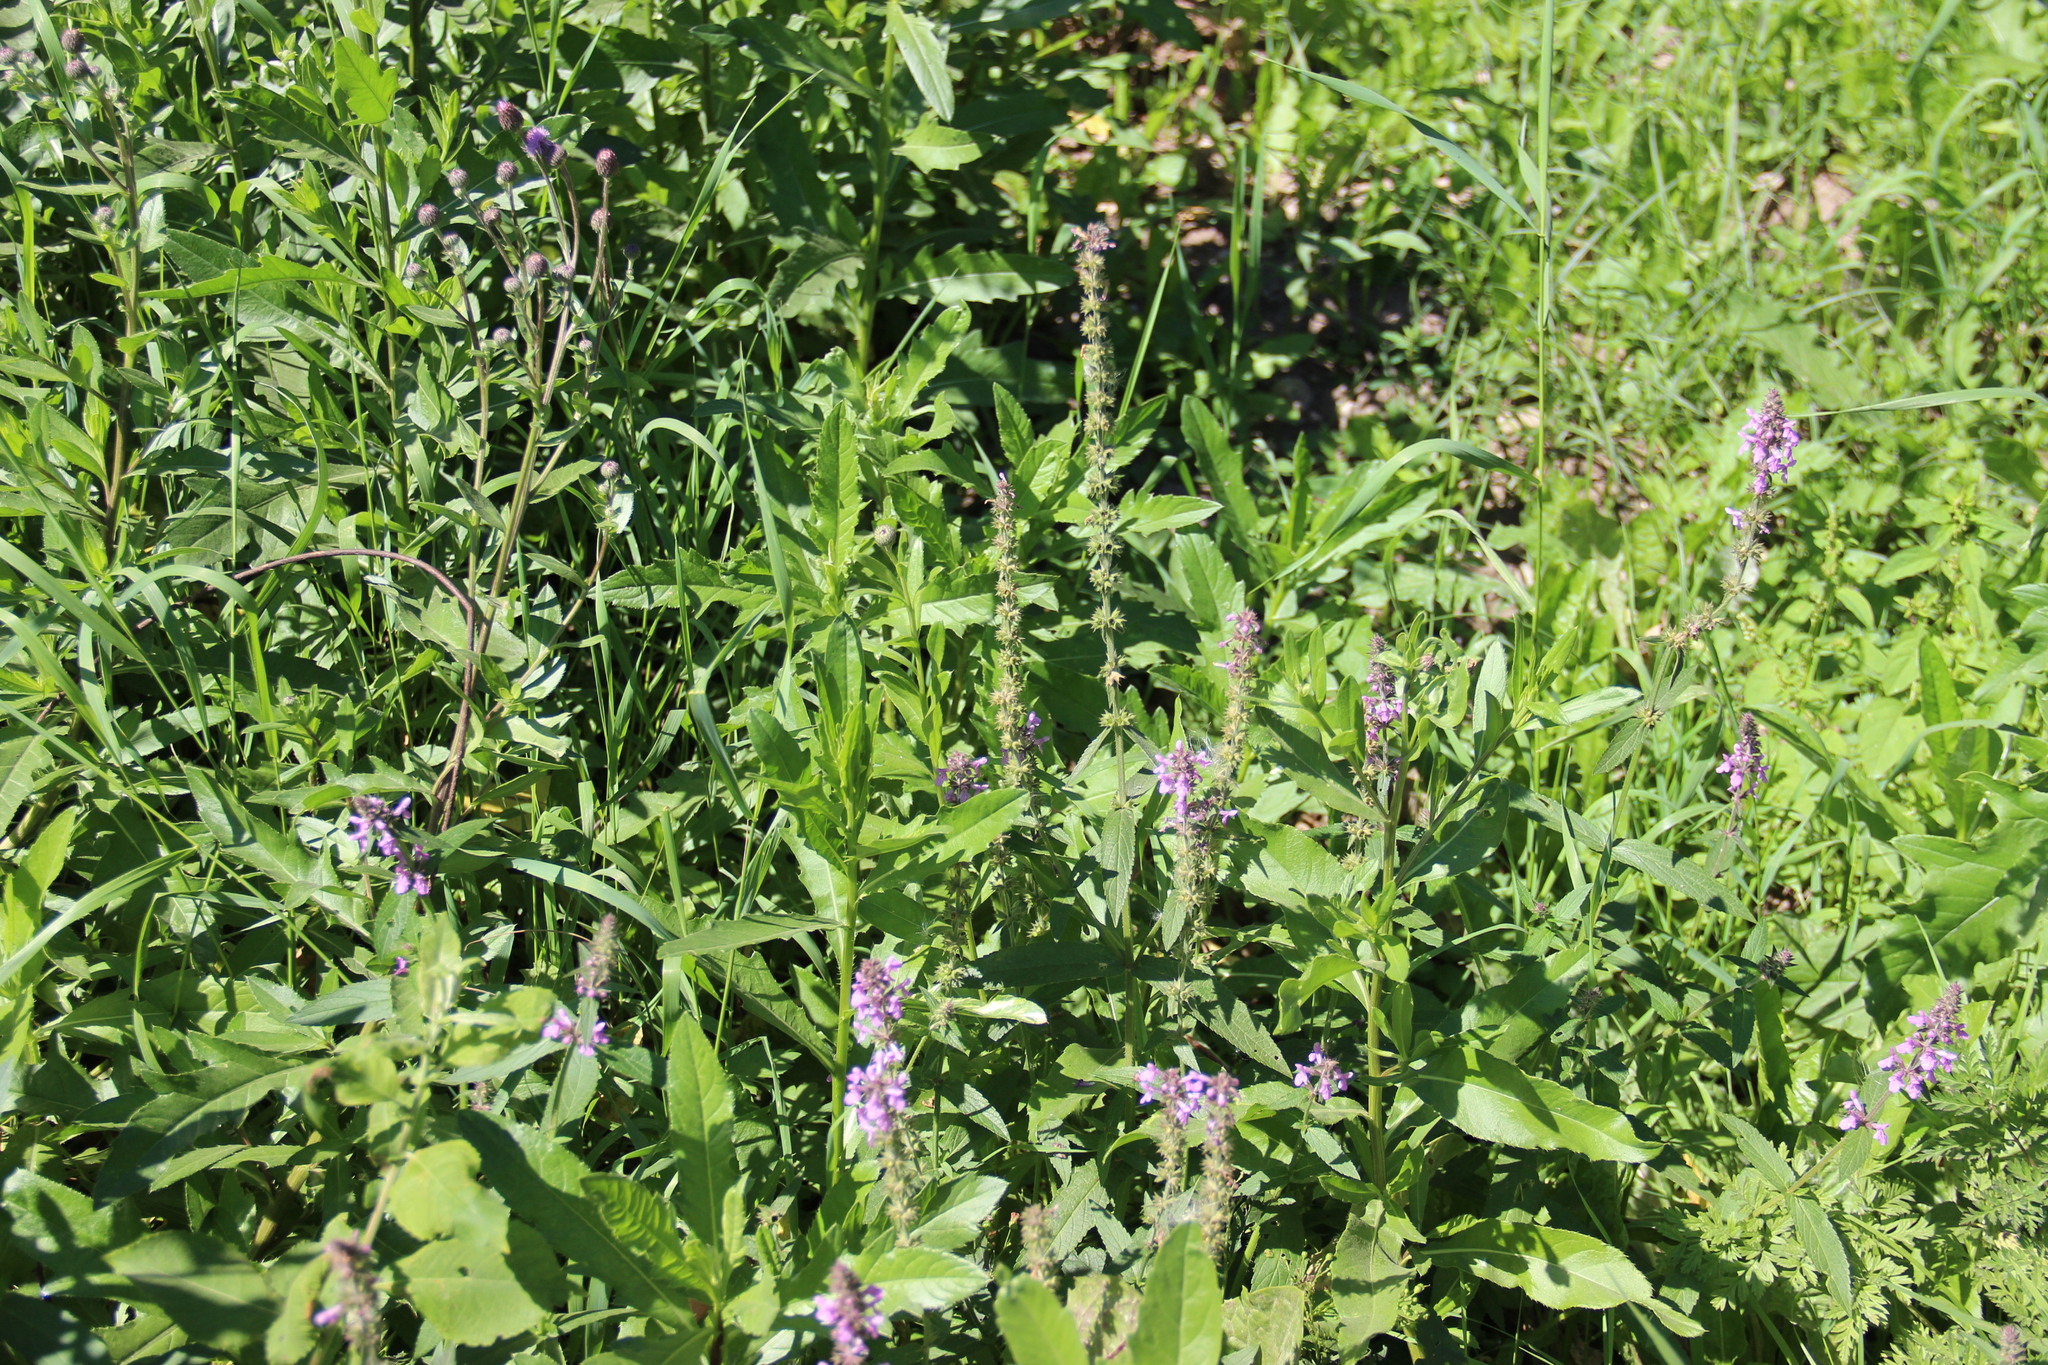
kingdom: Plantae
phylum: Tracheophyta
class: Magnoliopsida
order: Lamiales
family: Lamiaceae
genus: Stachys
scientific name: Stachys palustris
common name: Marsh woundwort
